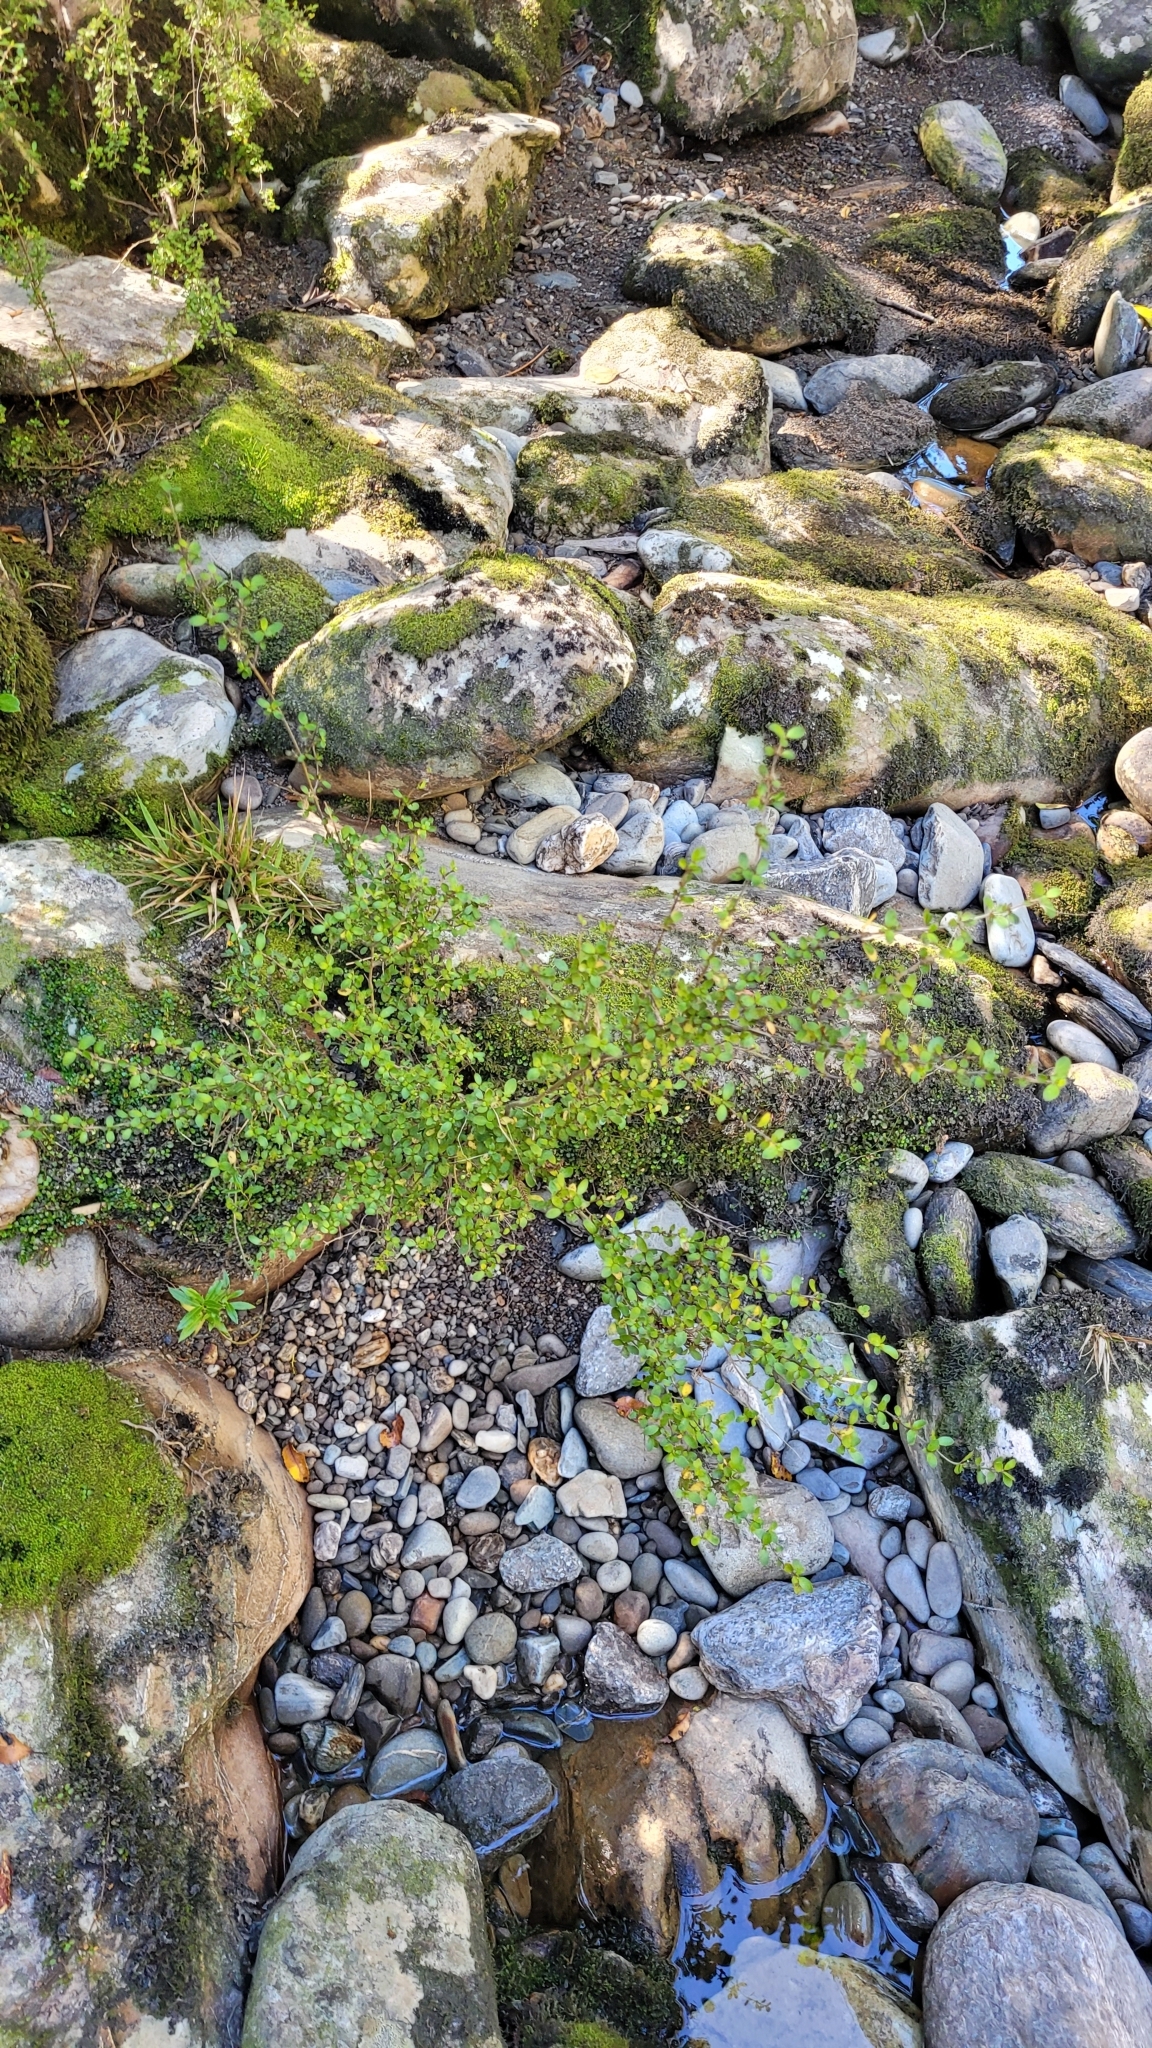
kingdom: Plantae
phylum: Tracheophyta
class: Magnoliopsida
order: Gentianales
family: Rubiaceae
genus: Coprosma
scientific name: Coprosma rhamnoides
